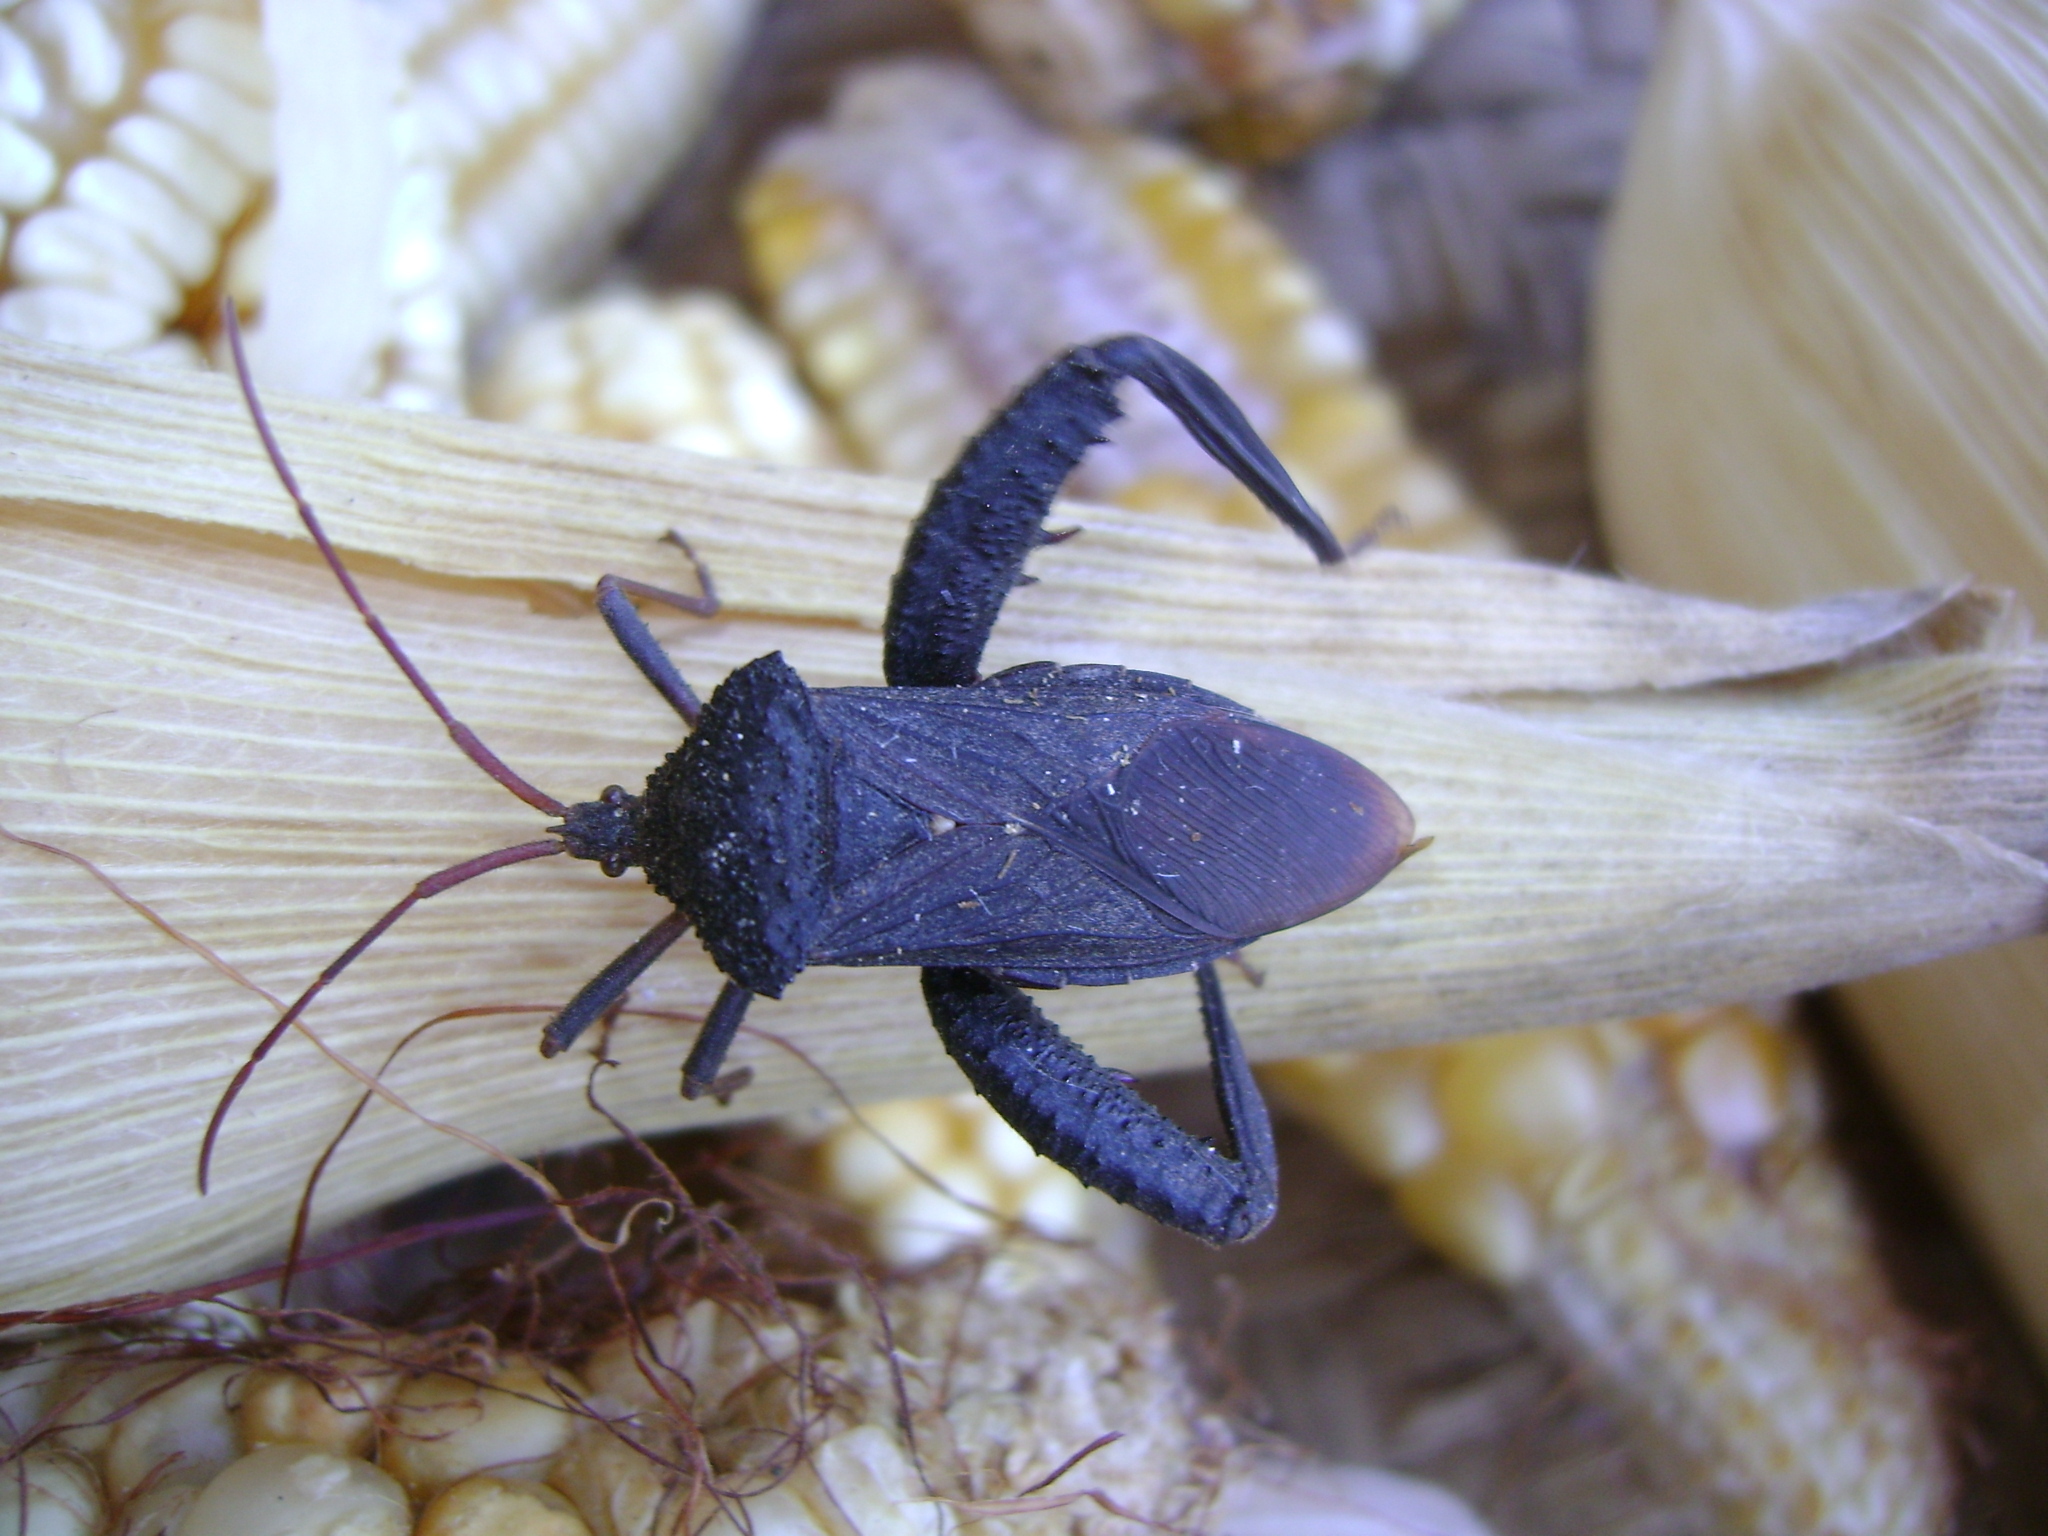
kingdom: Animalia
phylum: Arthropoda
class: Insecta
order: Hemiptera
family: Coreidae
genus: Acanthocephala
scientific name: Acanthocephala femorata
